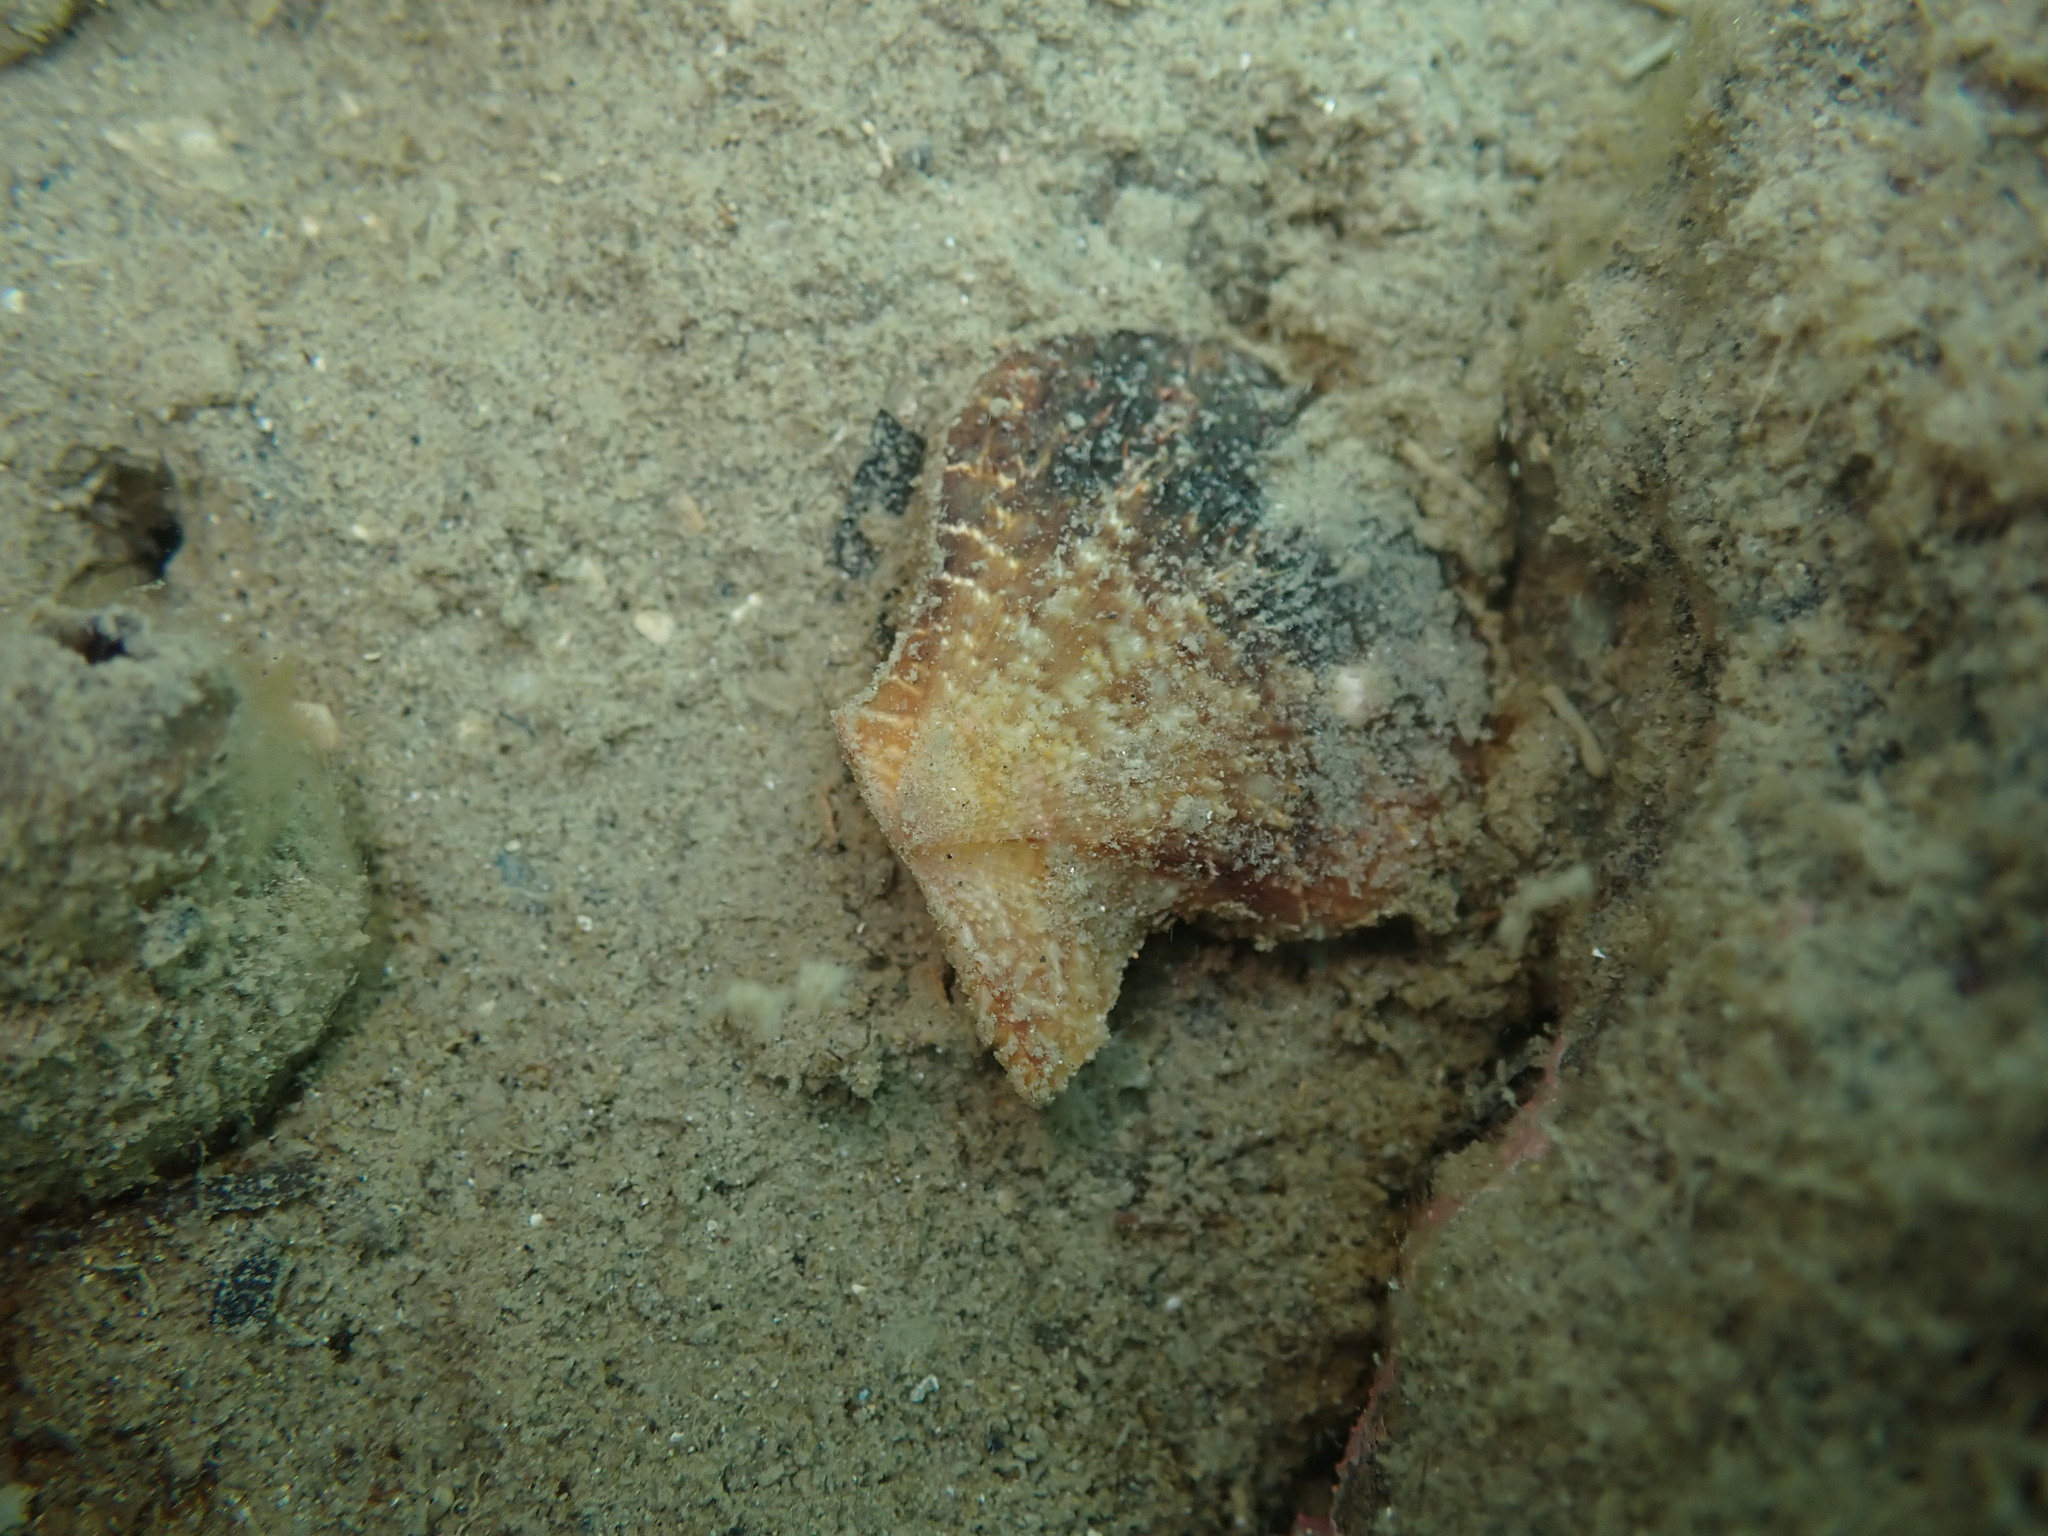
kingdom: Animalia
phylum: Mollusca
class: Bivalvia
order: Pectinida
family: Pectinidae
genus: Talochlamys
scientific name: Talochlamys zelandiae
